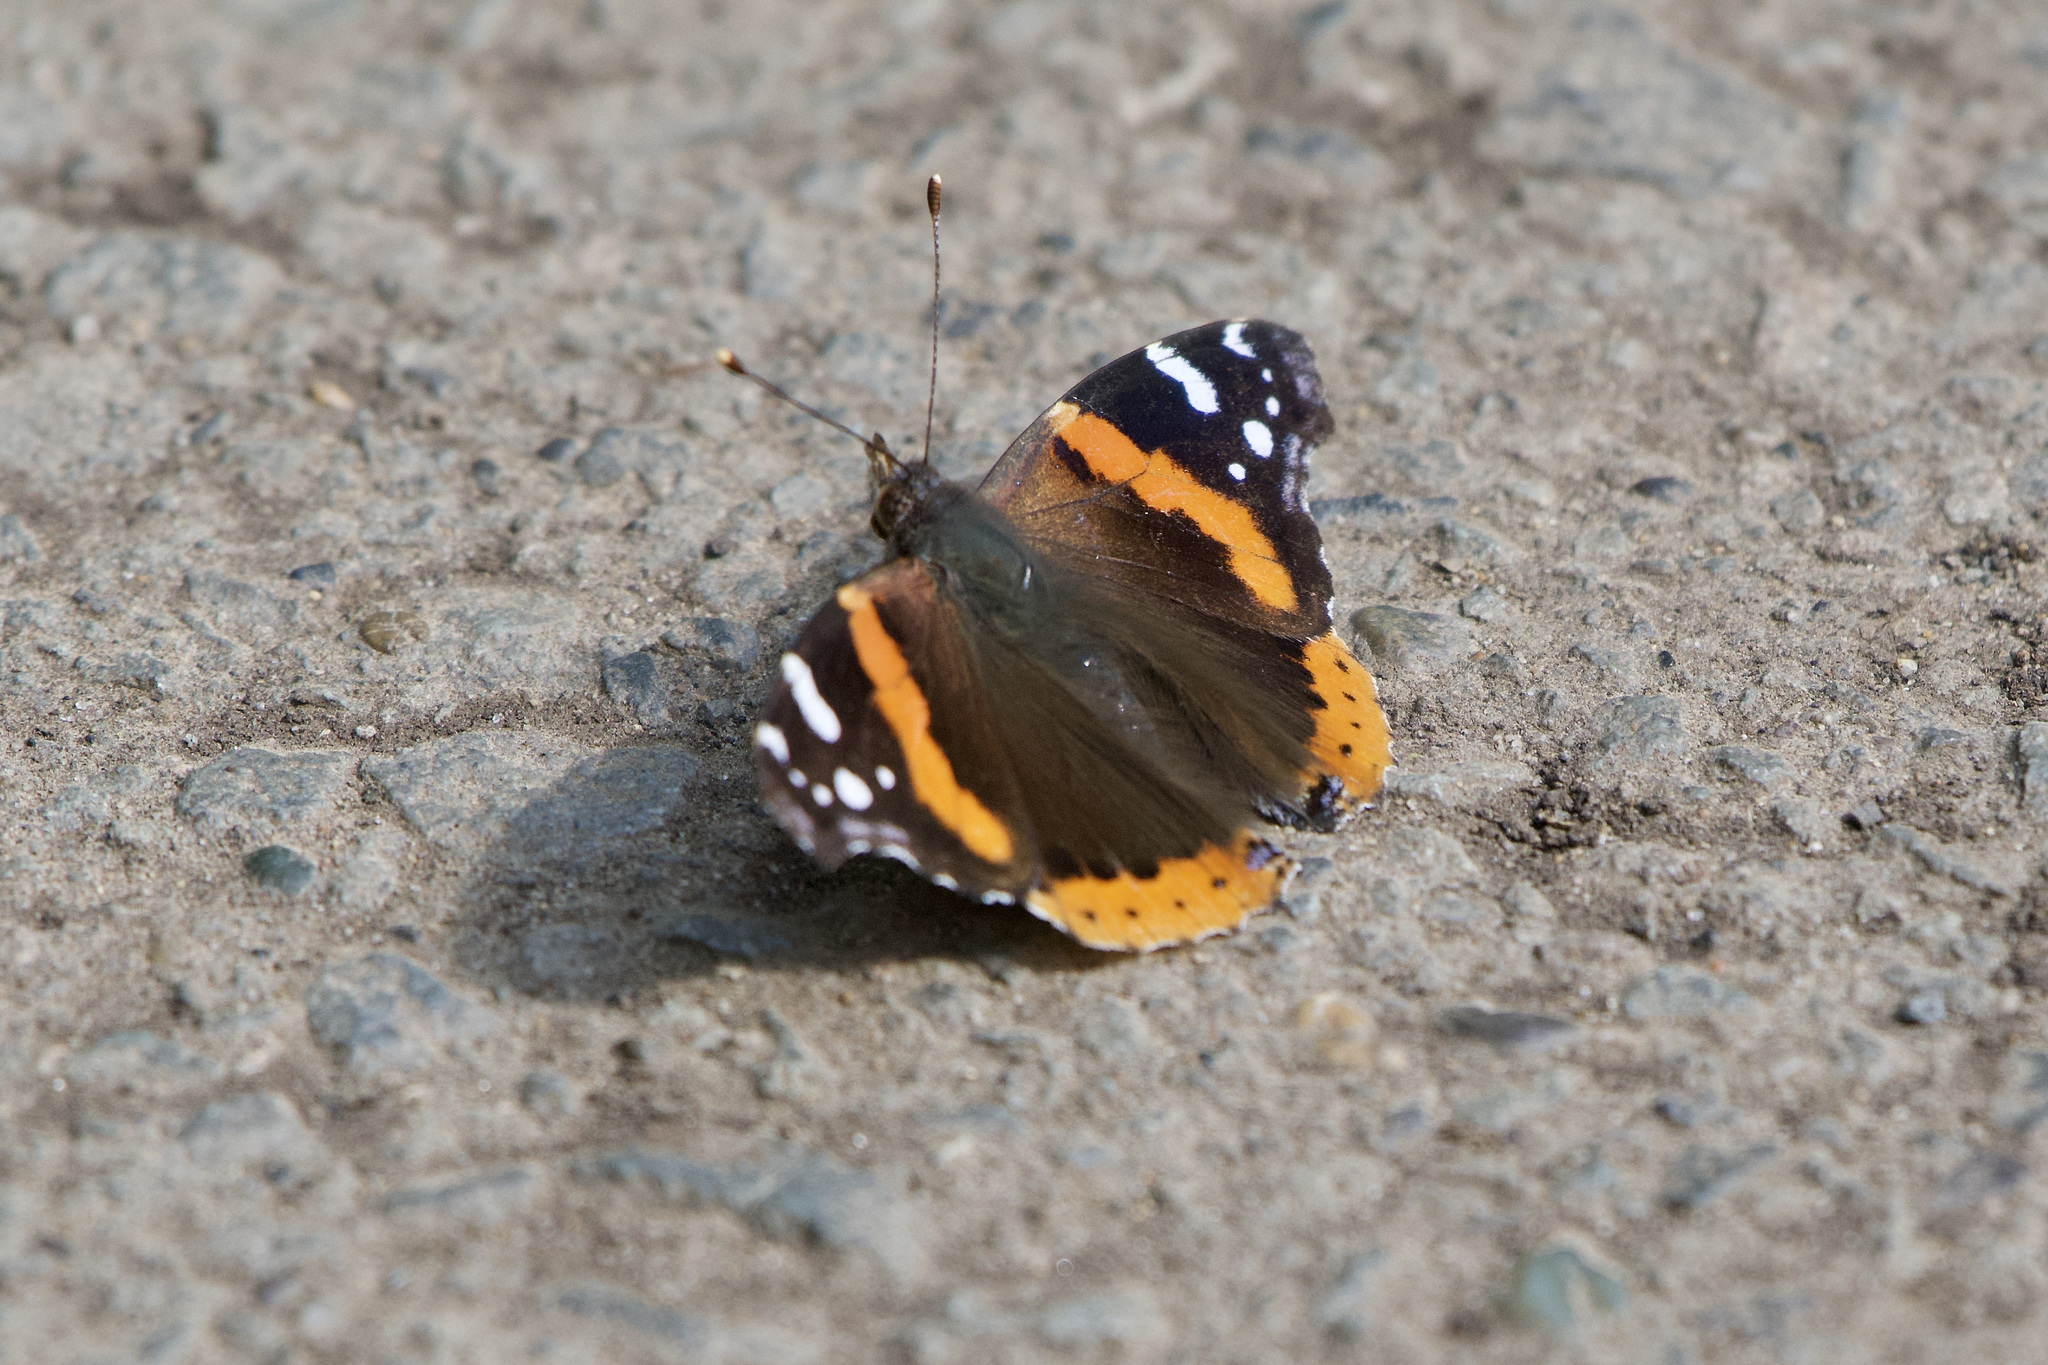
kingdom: Animalia
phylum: Arthropoda
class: Insecta
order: Lepidoptera
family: Nymphalidae
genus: Vanessa
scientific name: Vanessa atalanta
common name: Red admiral
